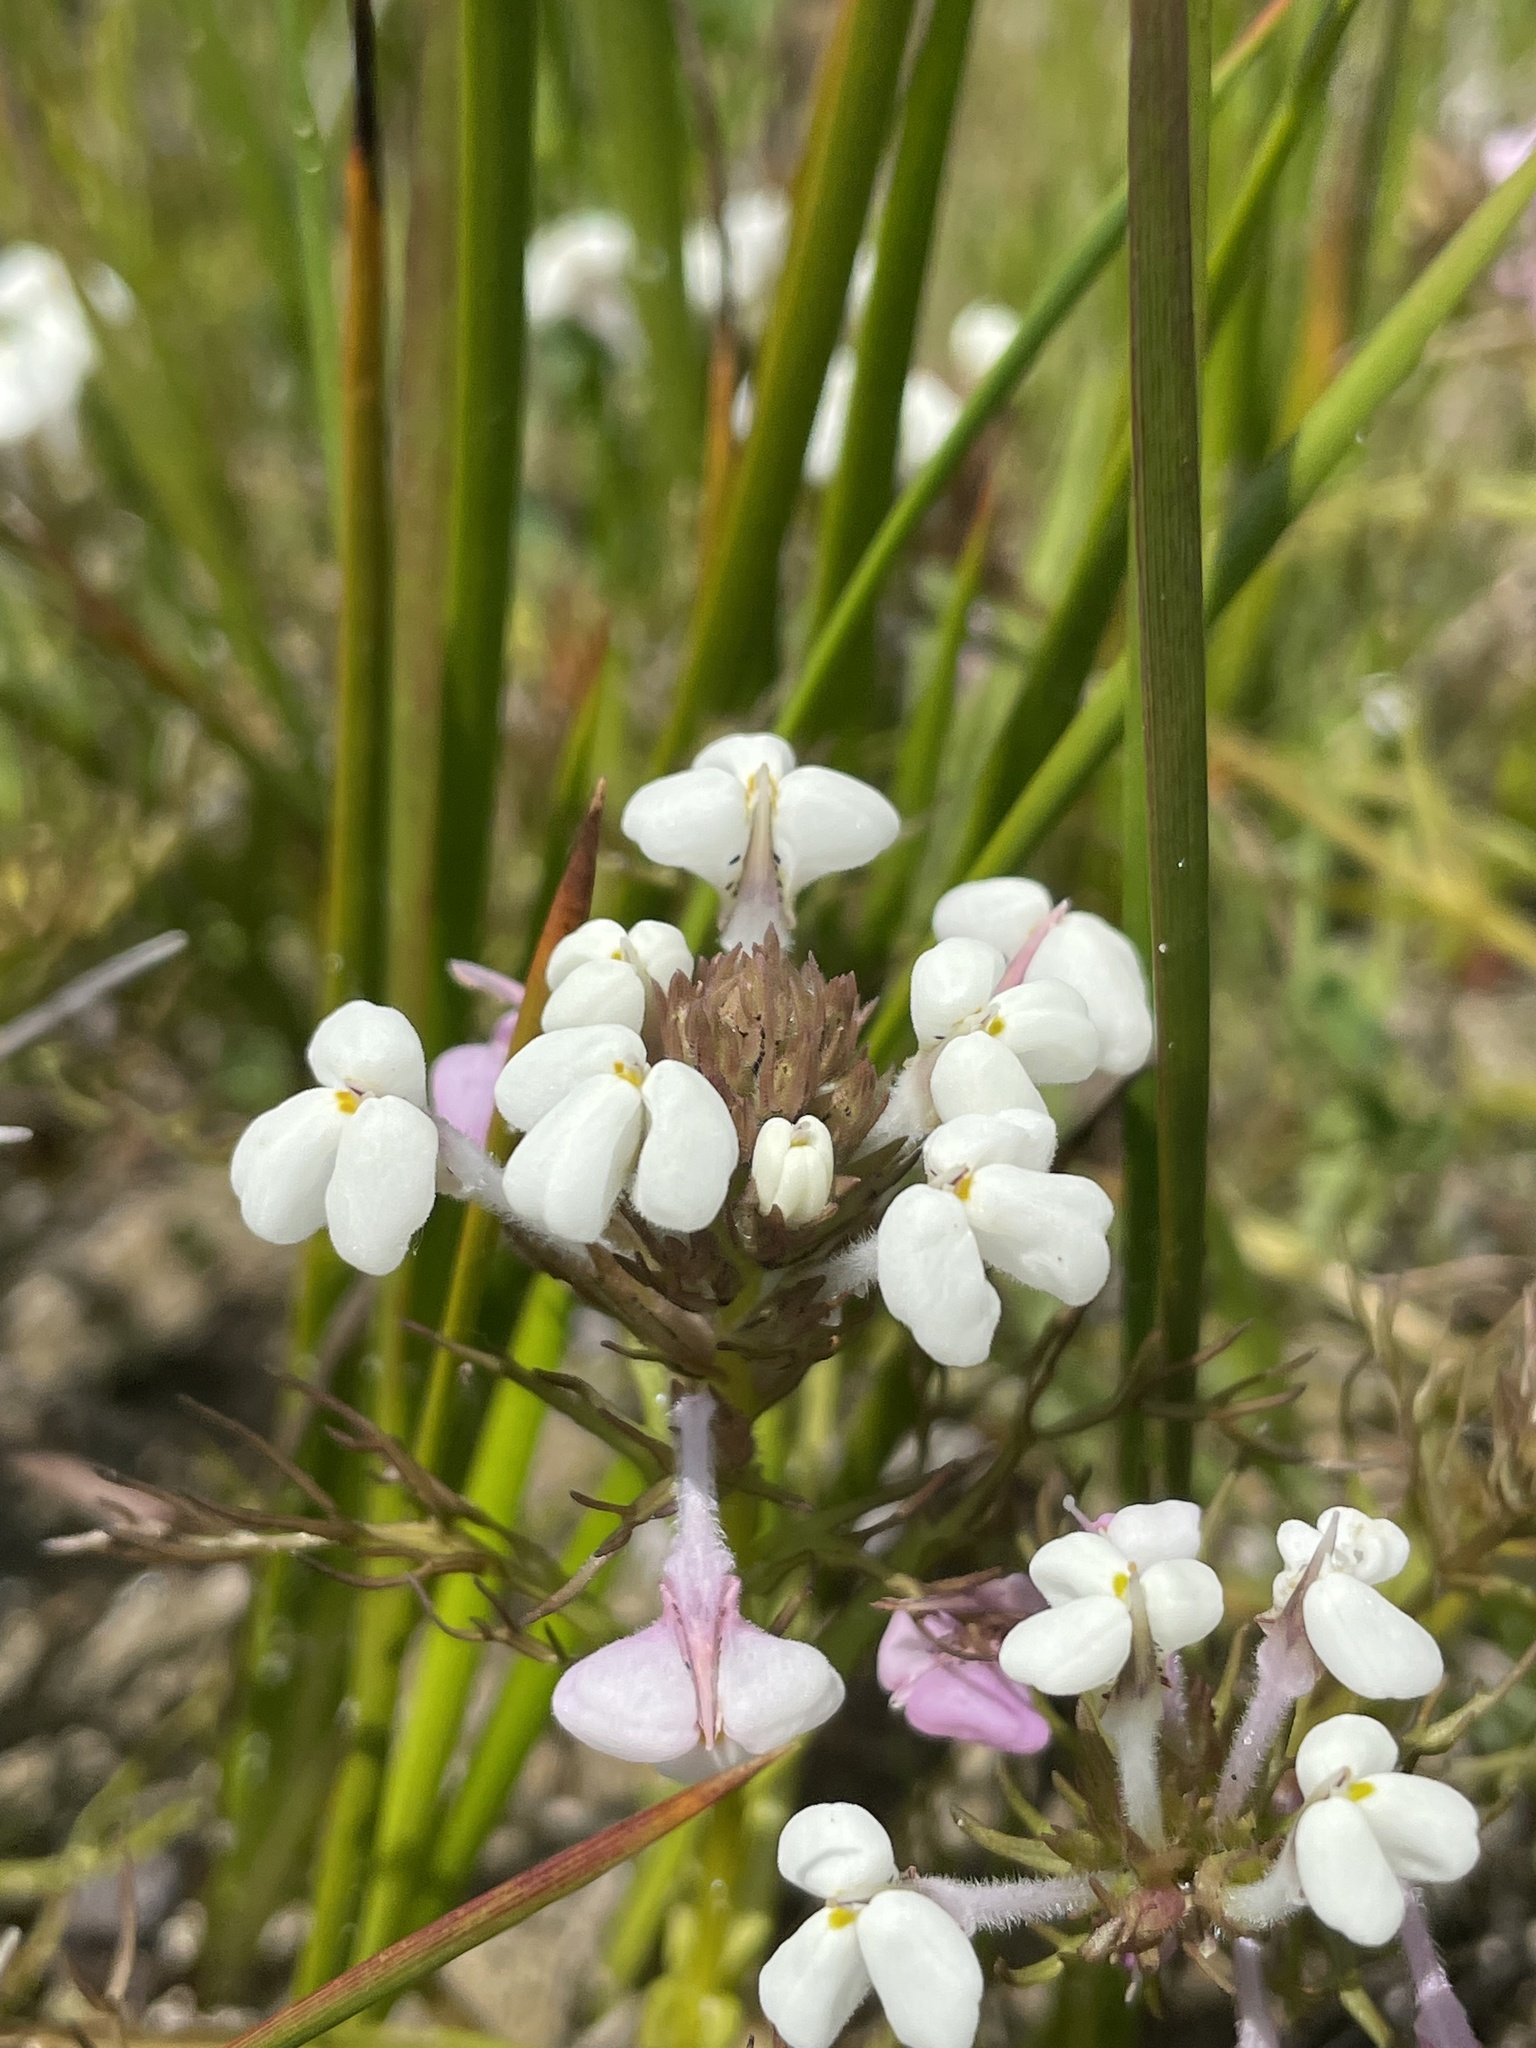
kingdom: Plantae
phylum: Tracheophyta
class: Magnoliopsida
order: Lamiales
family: Orobanchaceae
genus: Triphysaria
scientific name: Triphysaria versicolor
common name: Bearded false owl-clover
